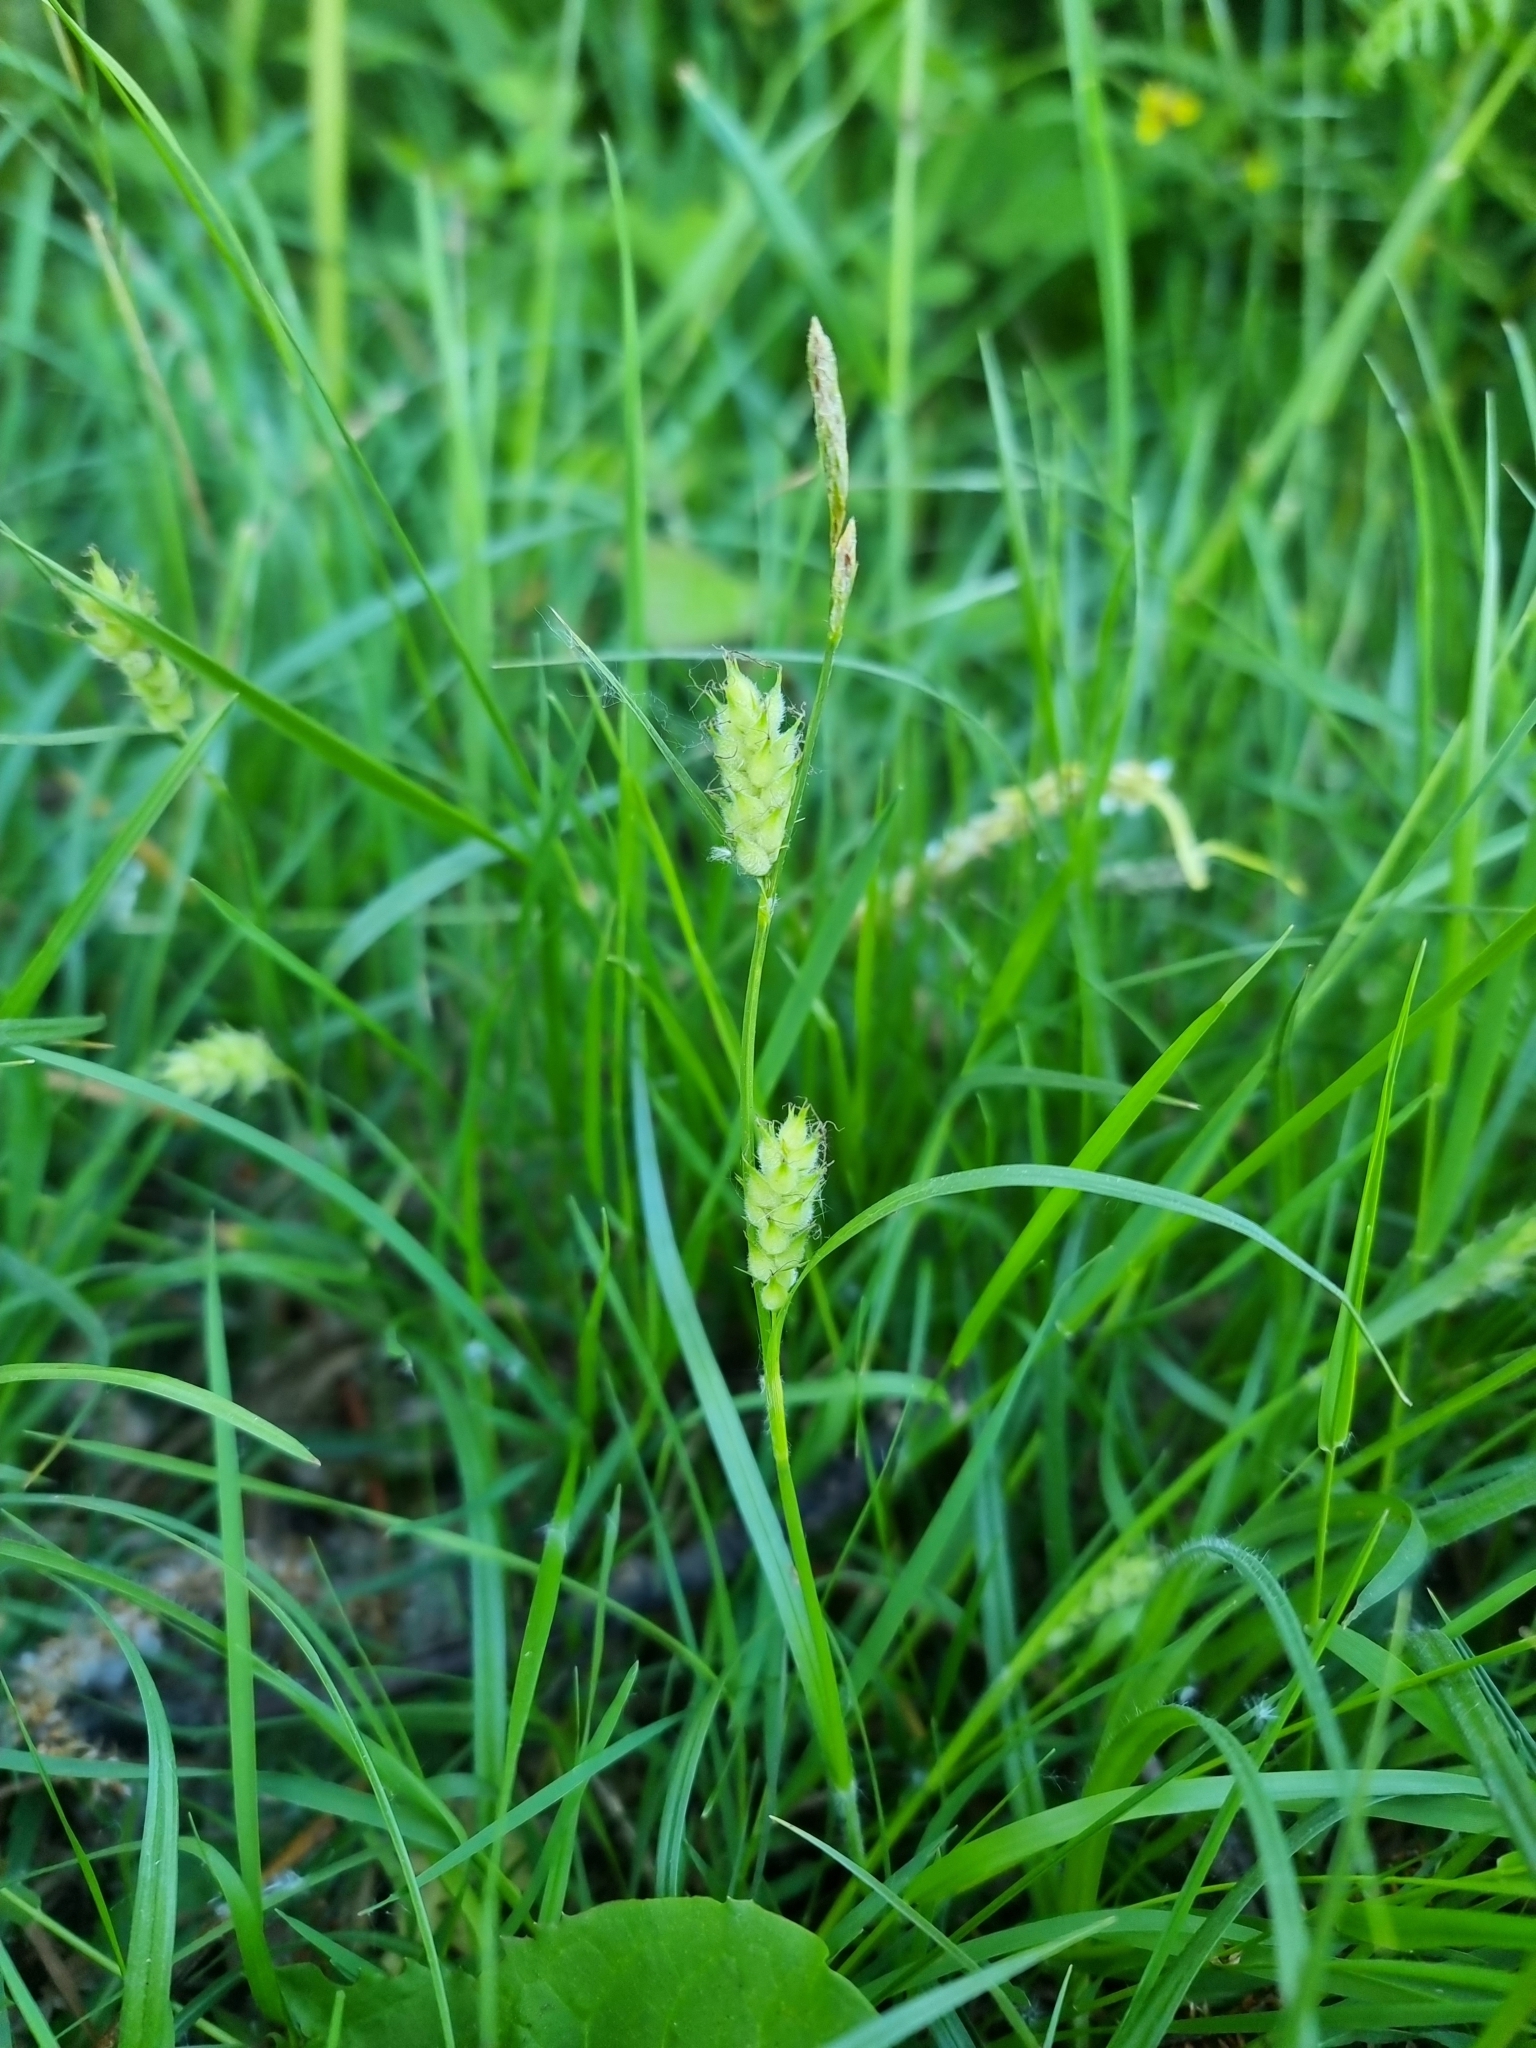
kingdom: Plantae
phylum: Tracheophyta
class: Liliopsida
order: Poales
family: Cyperaceae
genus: Carex
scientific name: Carex hirta
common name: Hairy sedge
